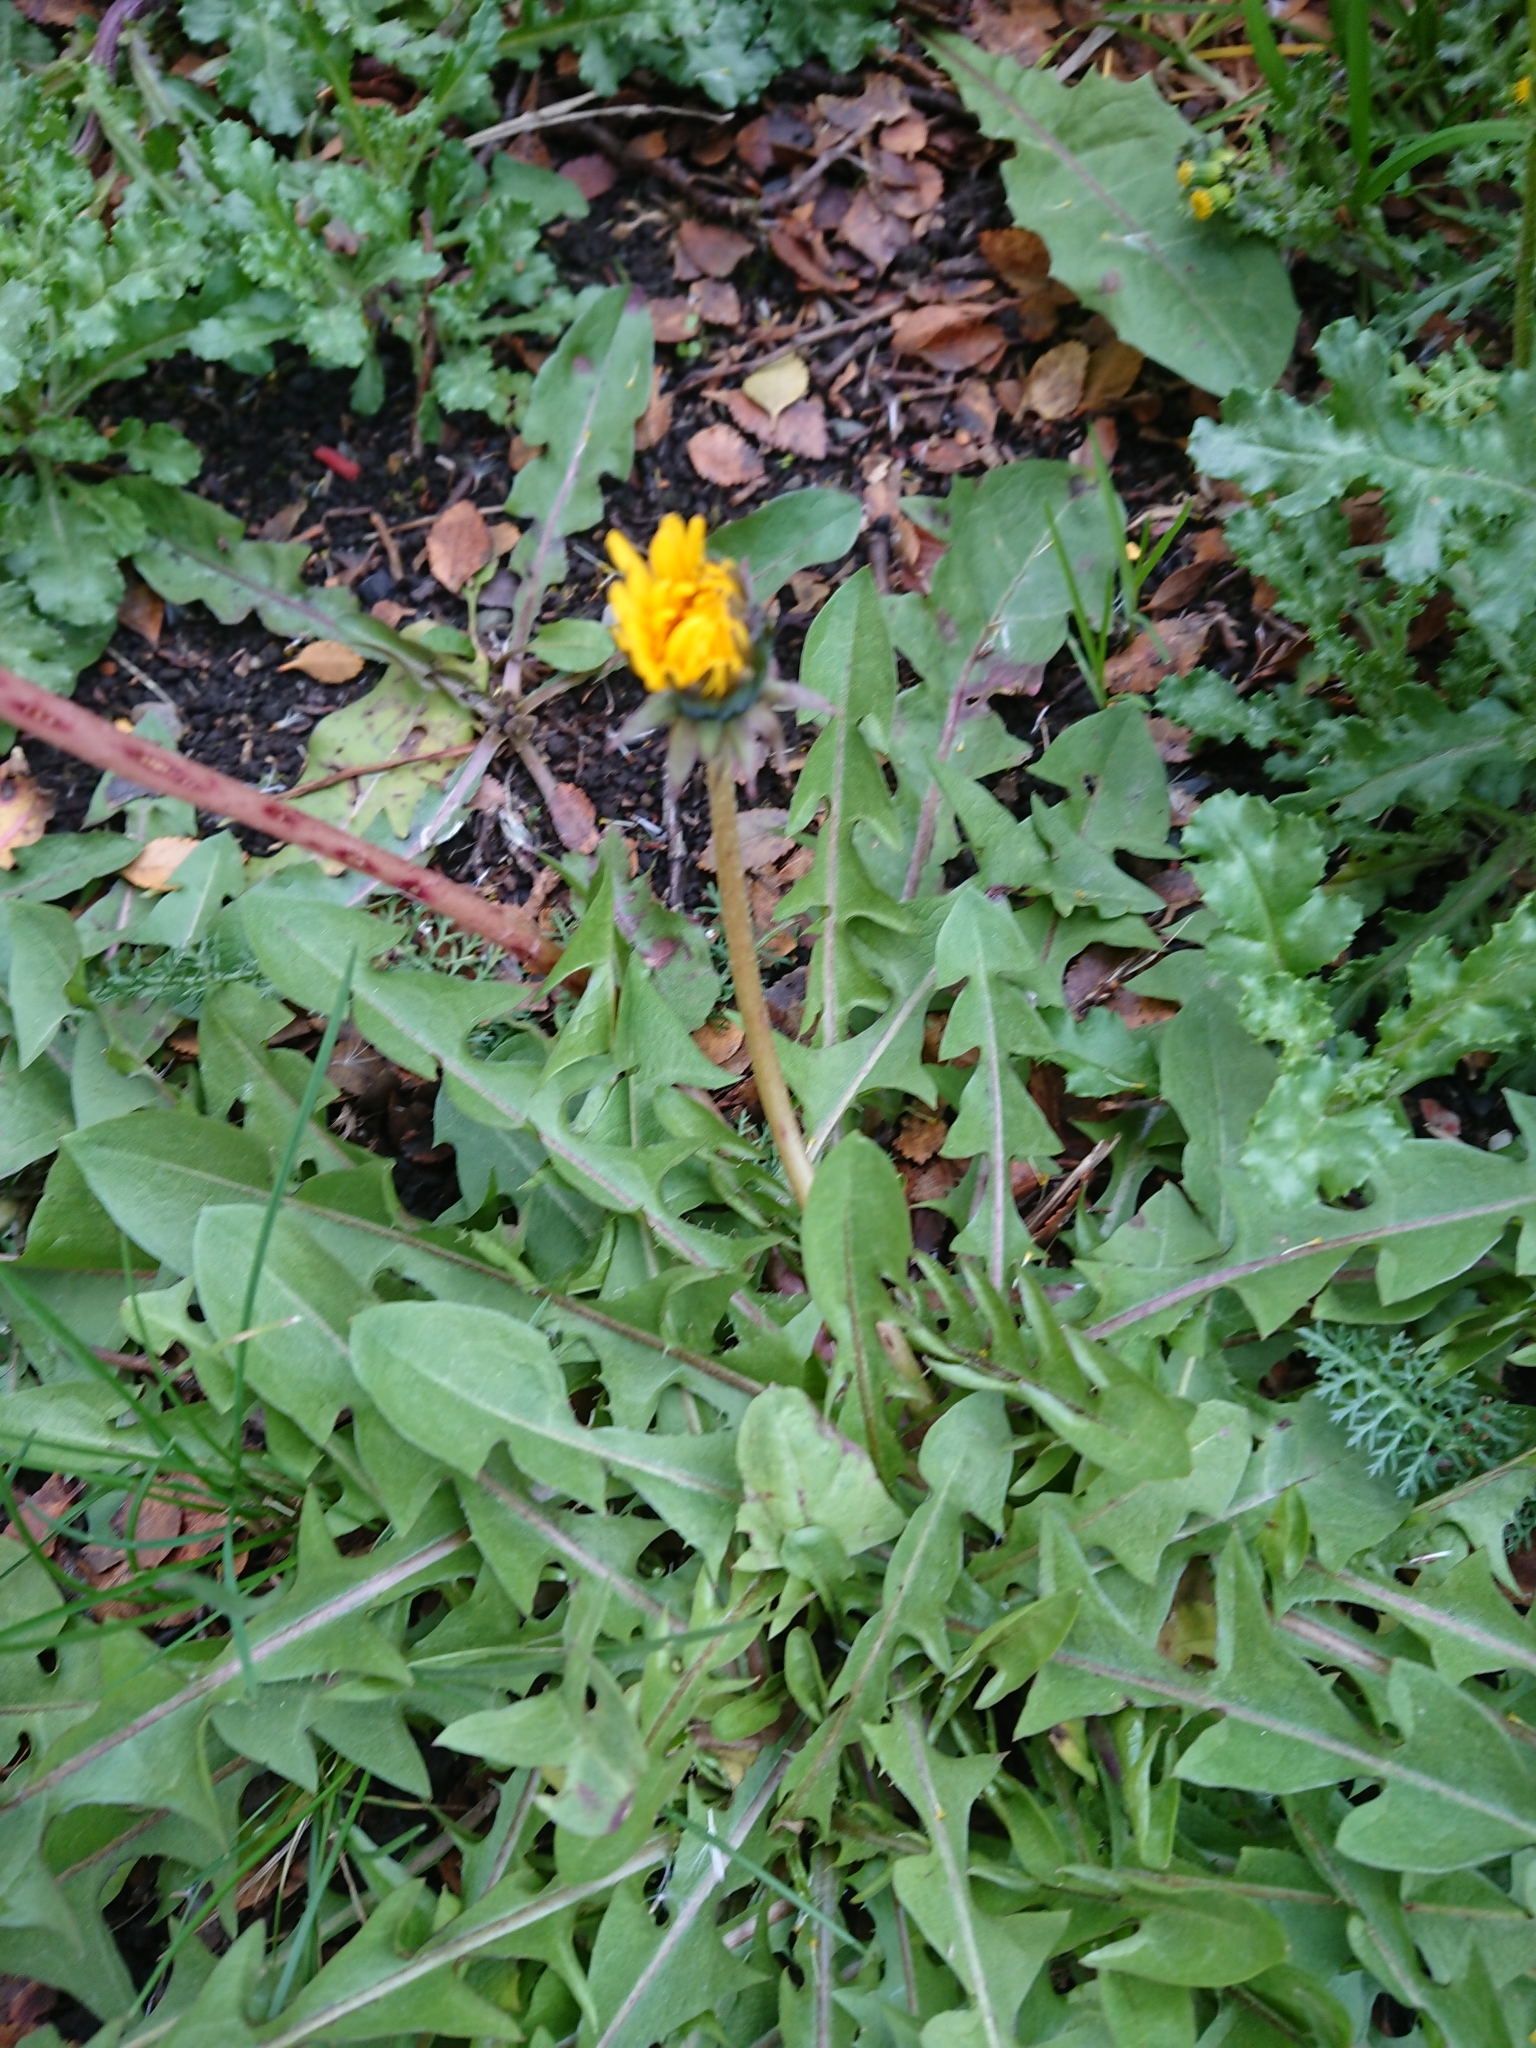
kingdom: Plantae
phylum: Tracheophyta
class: Magnoliopsida
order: Asterales
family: Asteraceae
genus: Taraxacum
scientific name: Taraxacum officinale
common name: Common dandelion
